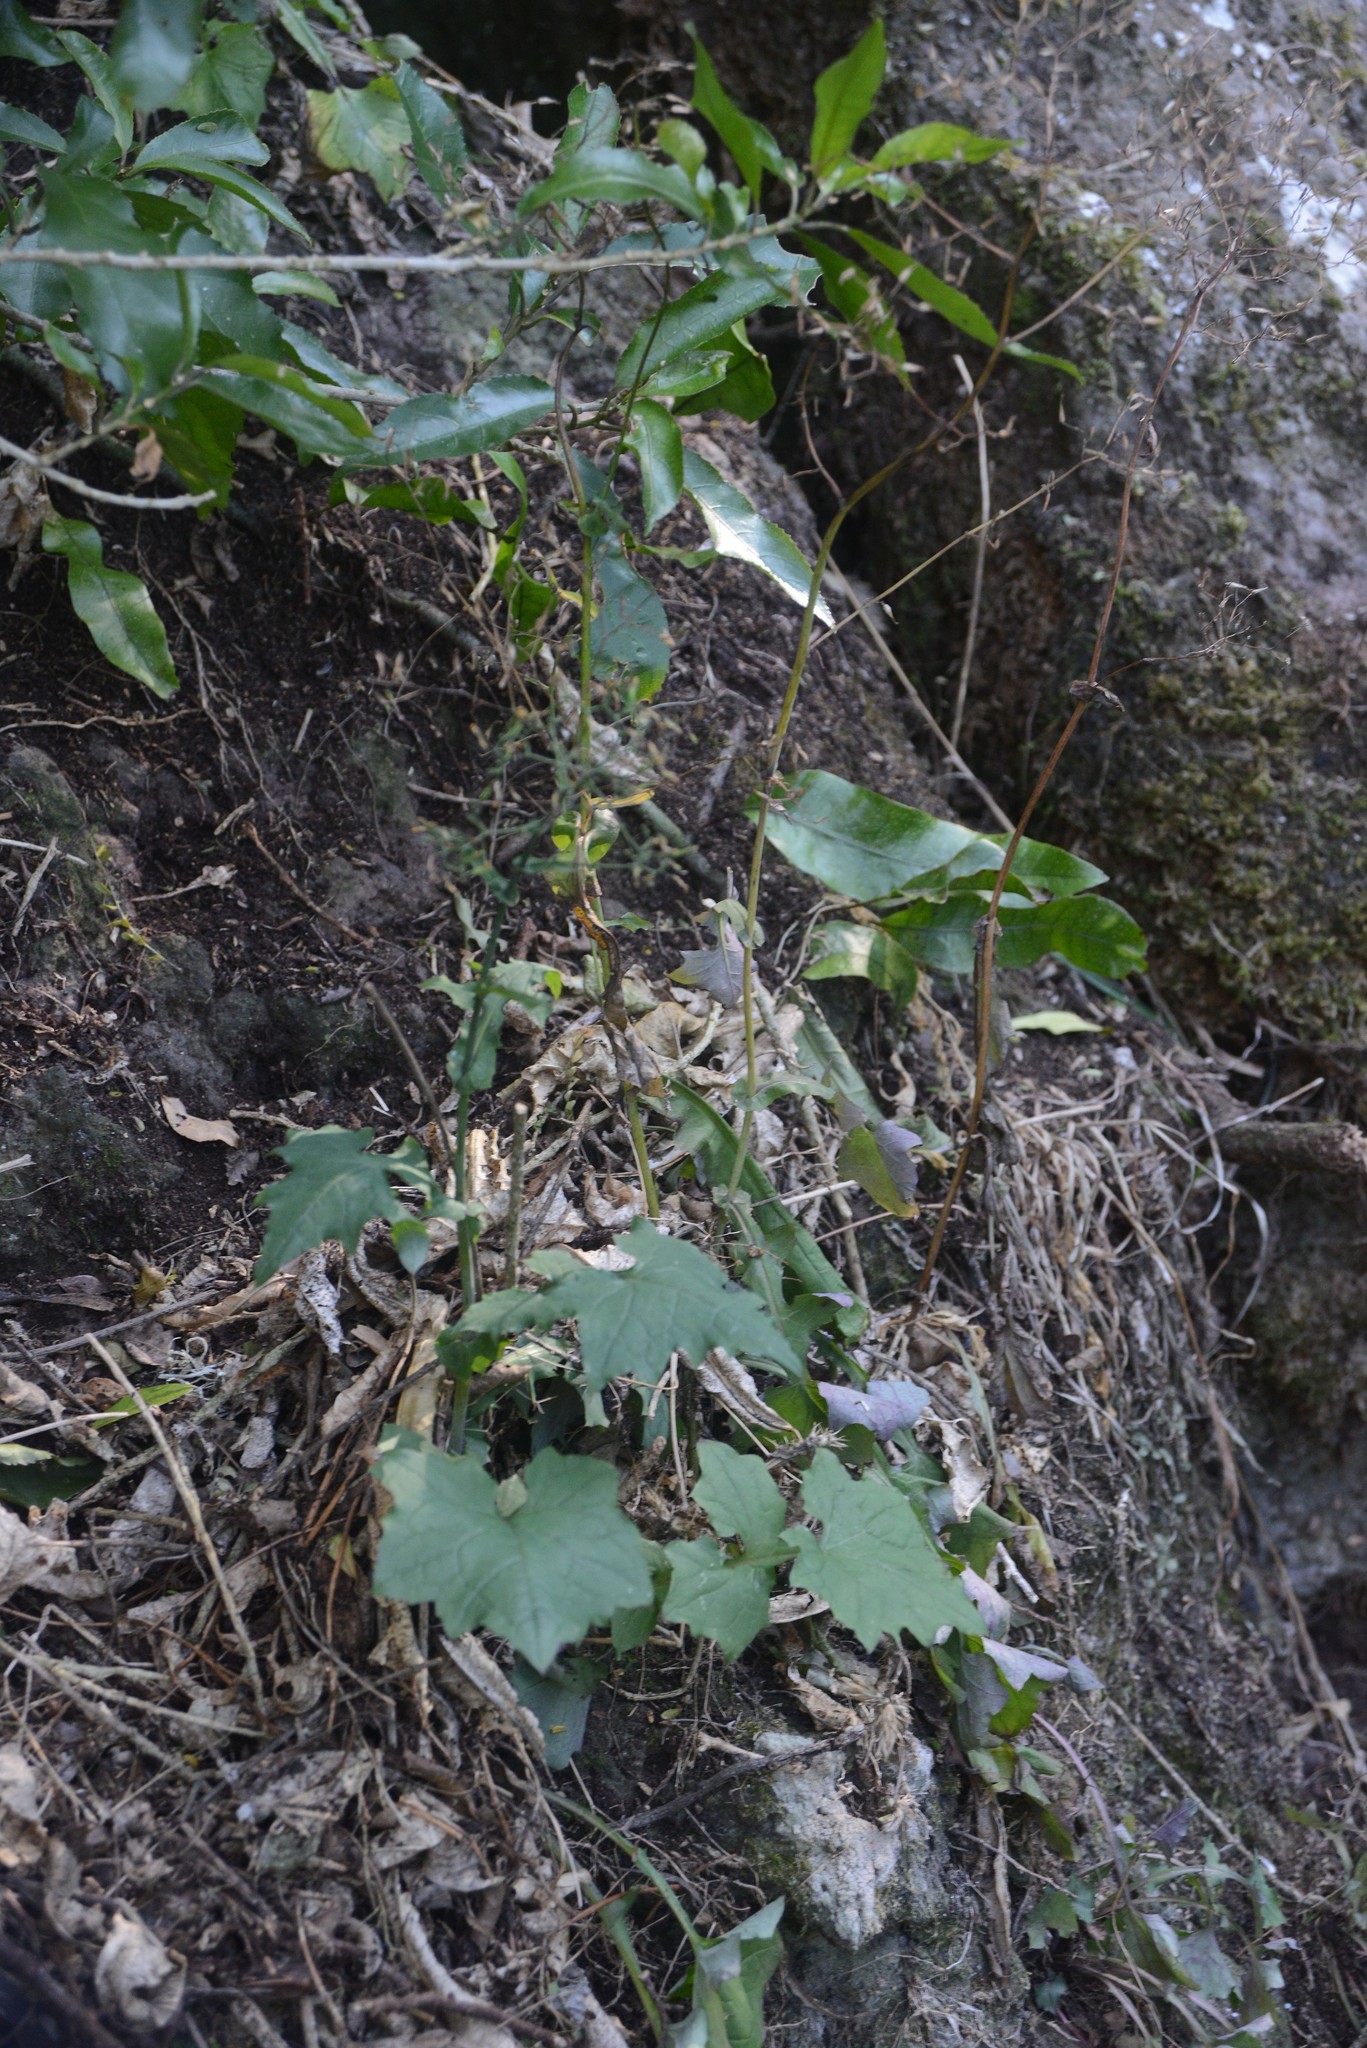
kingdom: Plantae
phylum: Tracheophyta
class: Magnoliopsida
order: Asterales
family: Asteraceae
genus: Mycelis
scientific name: Mycelis muralis
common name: Wall lettuce
